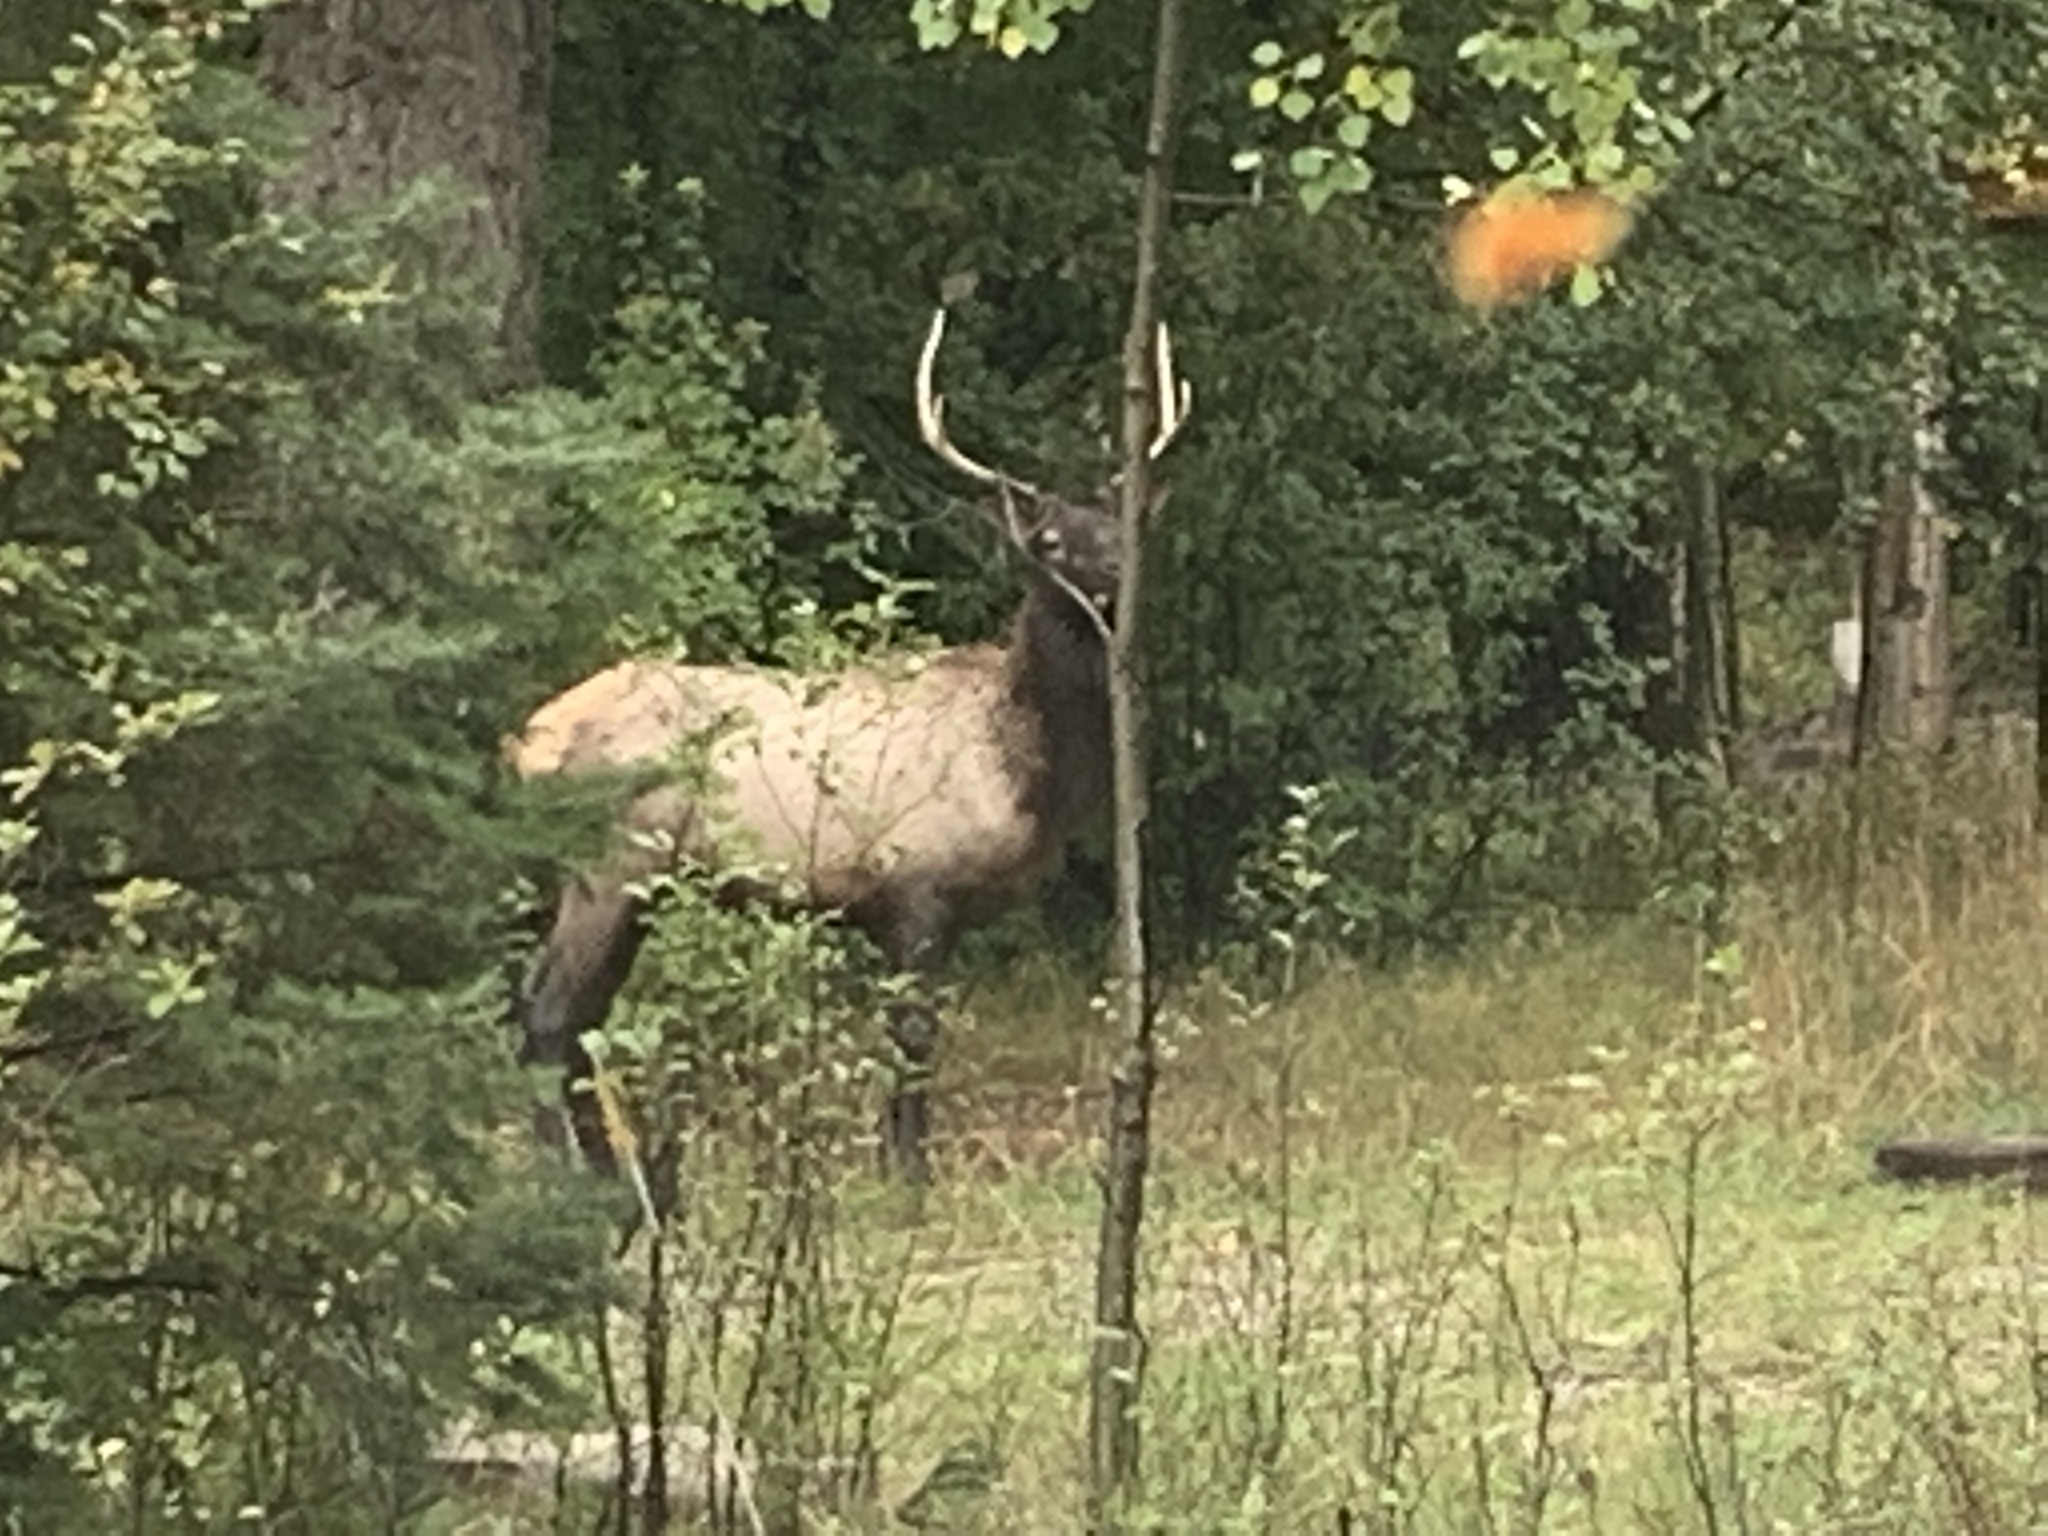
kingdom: Animalia
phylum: Chordata
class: Mammalia
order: Artiodactyla
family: Cervidae
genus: Cervus
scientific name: Cervus elaphus
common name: Red deer
